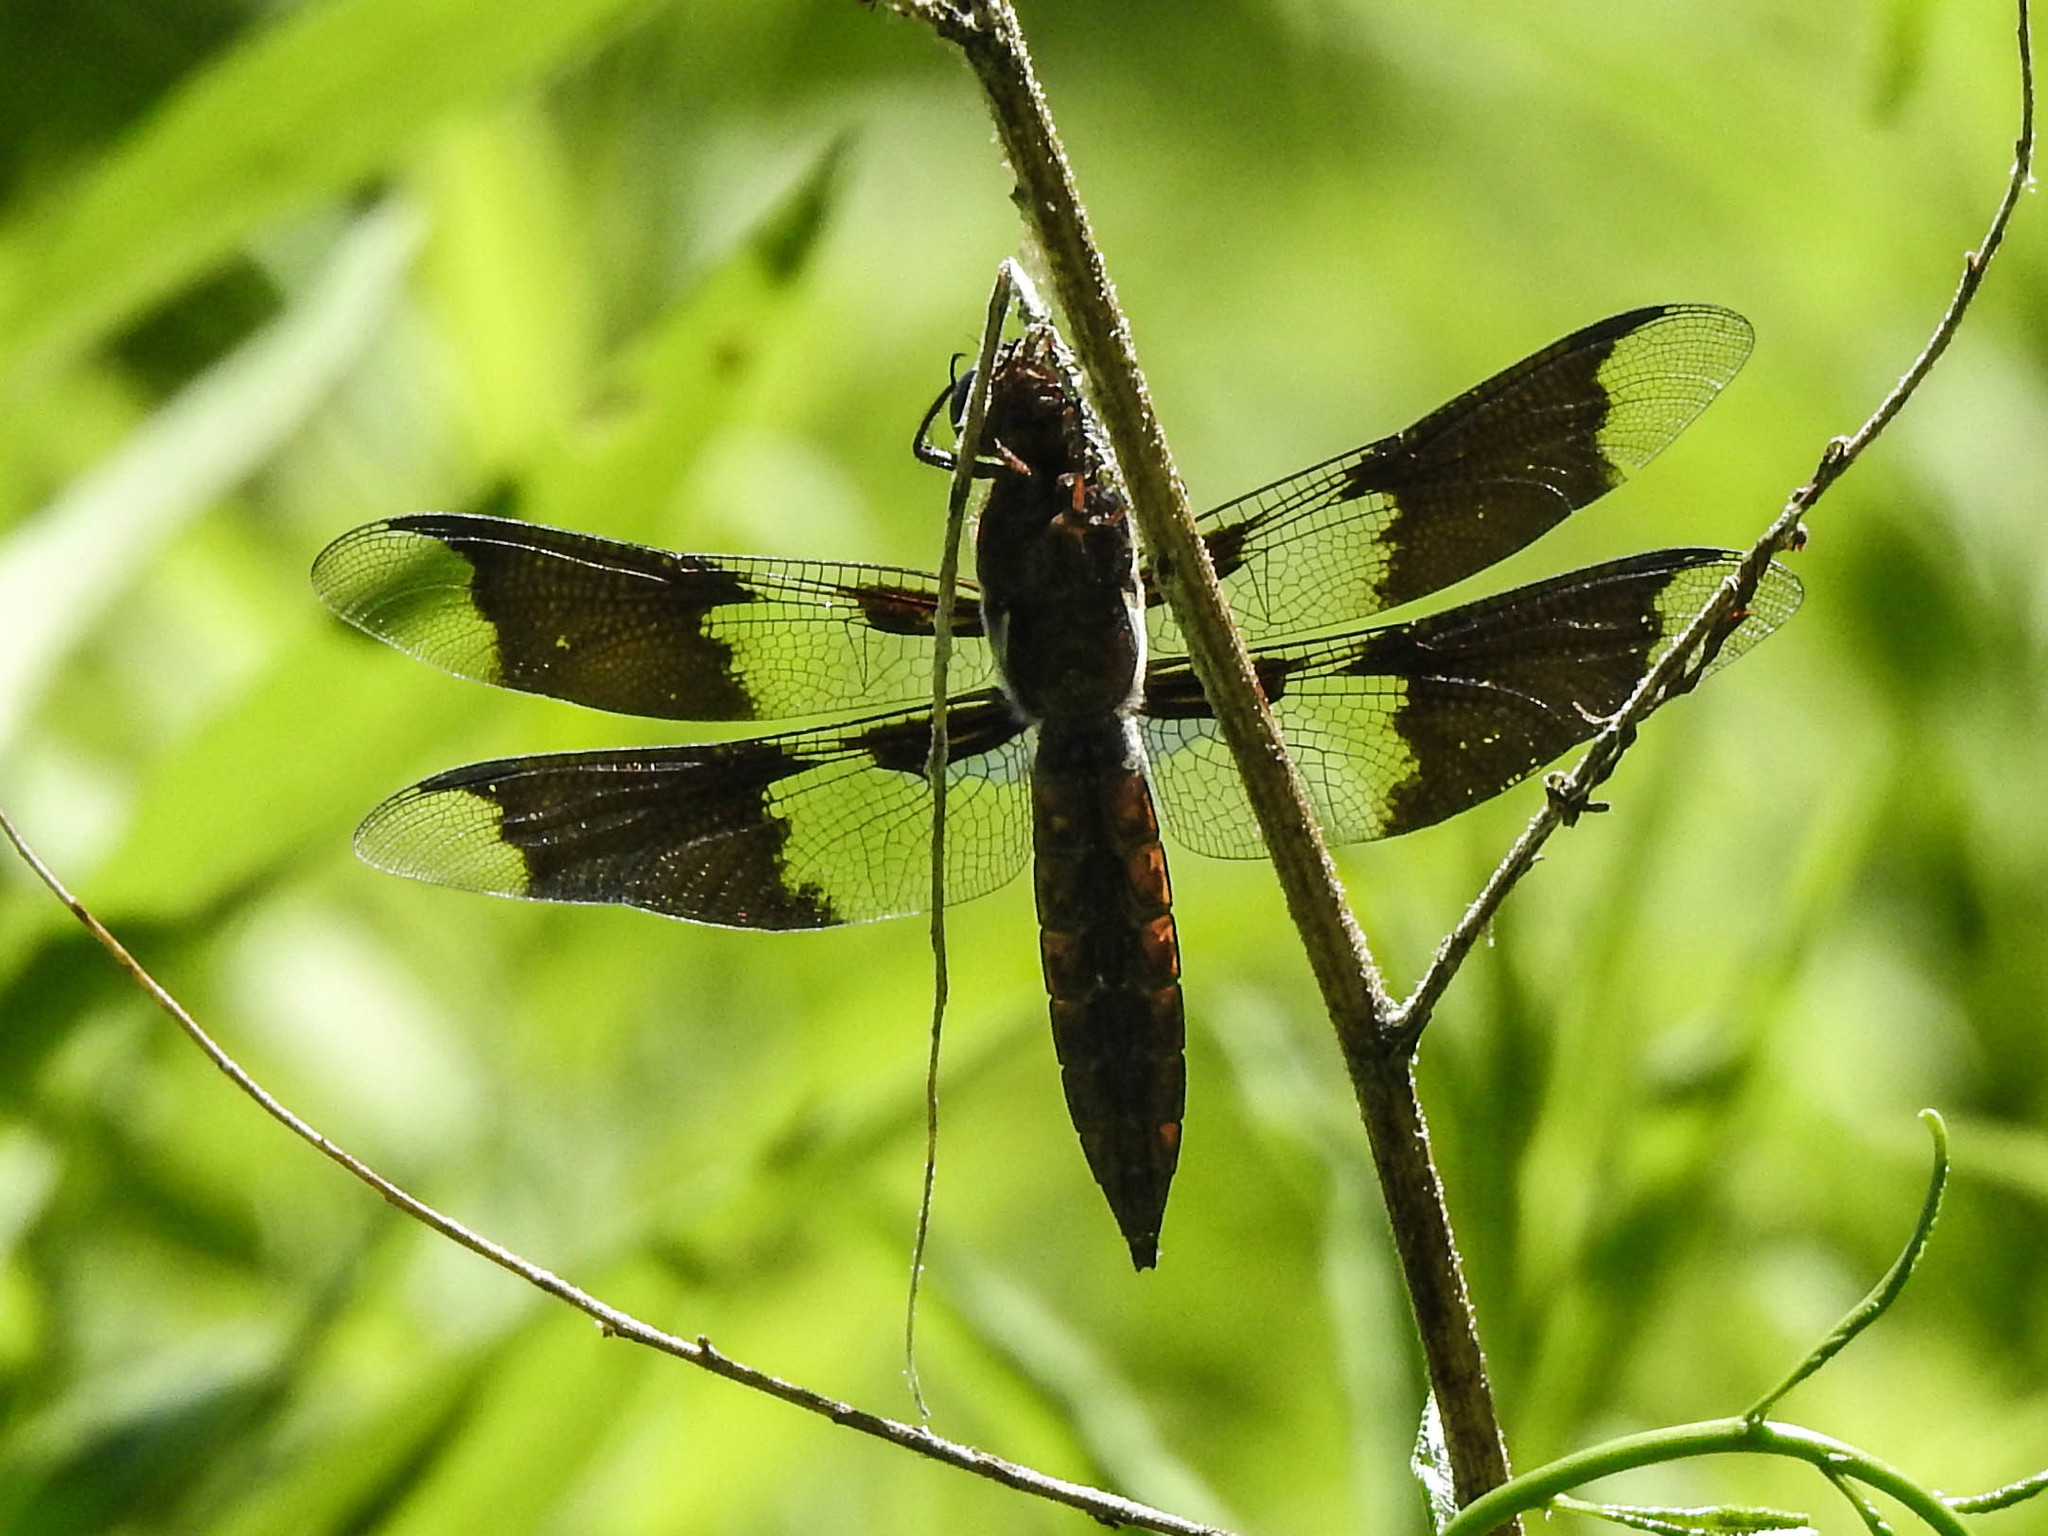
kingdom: Animalia
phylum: Arthropoda
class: Insecta
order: Odonata
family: Libellulidae
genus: Plathemis
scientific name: Plathemis lydia
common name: Common whitetail
